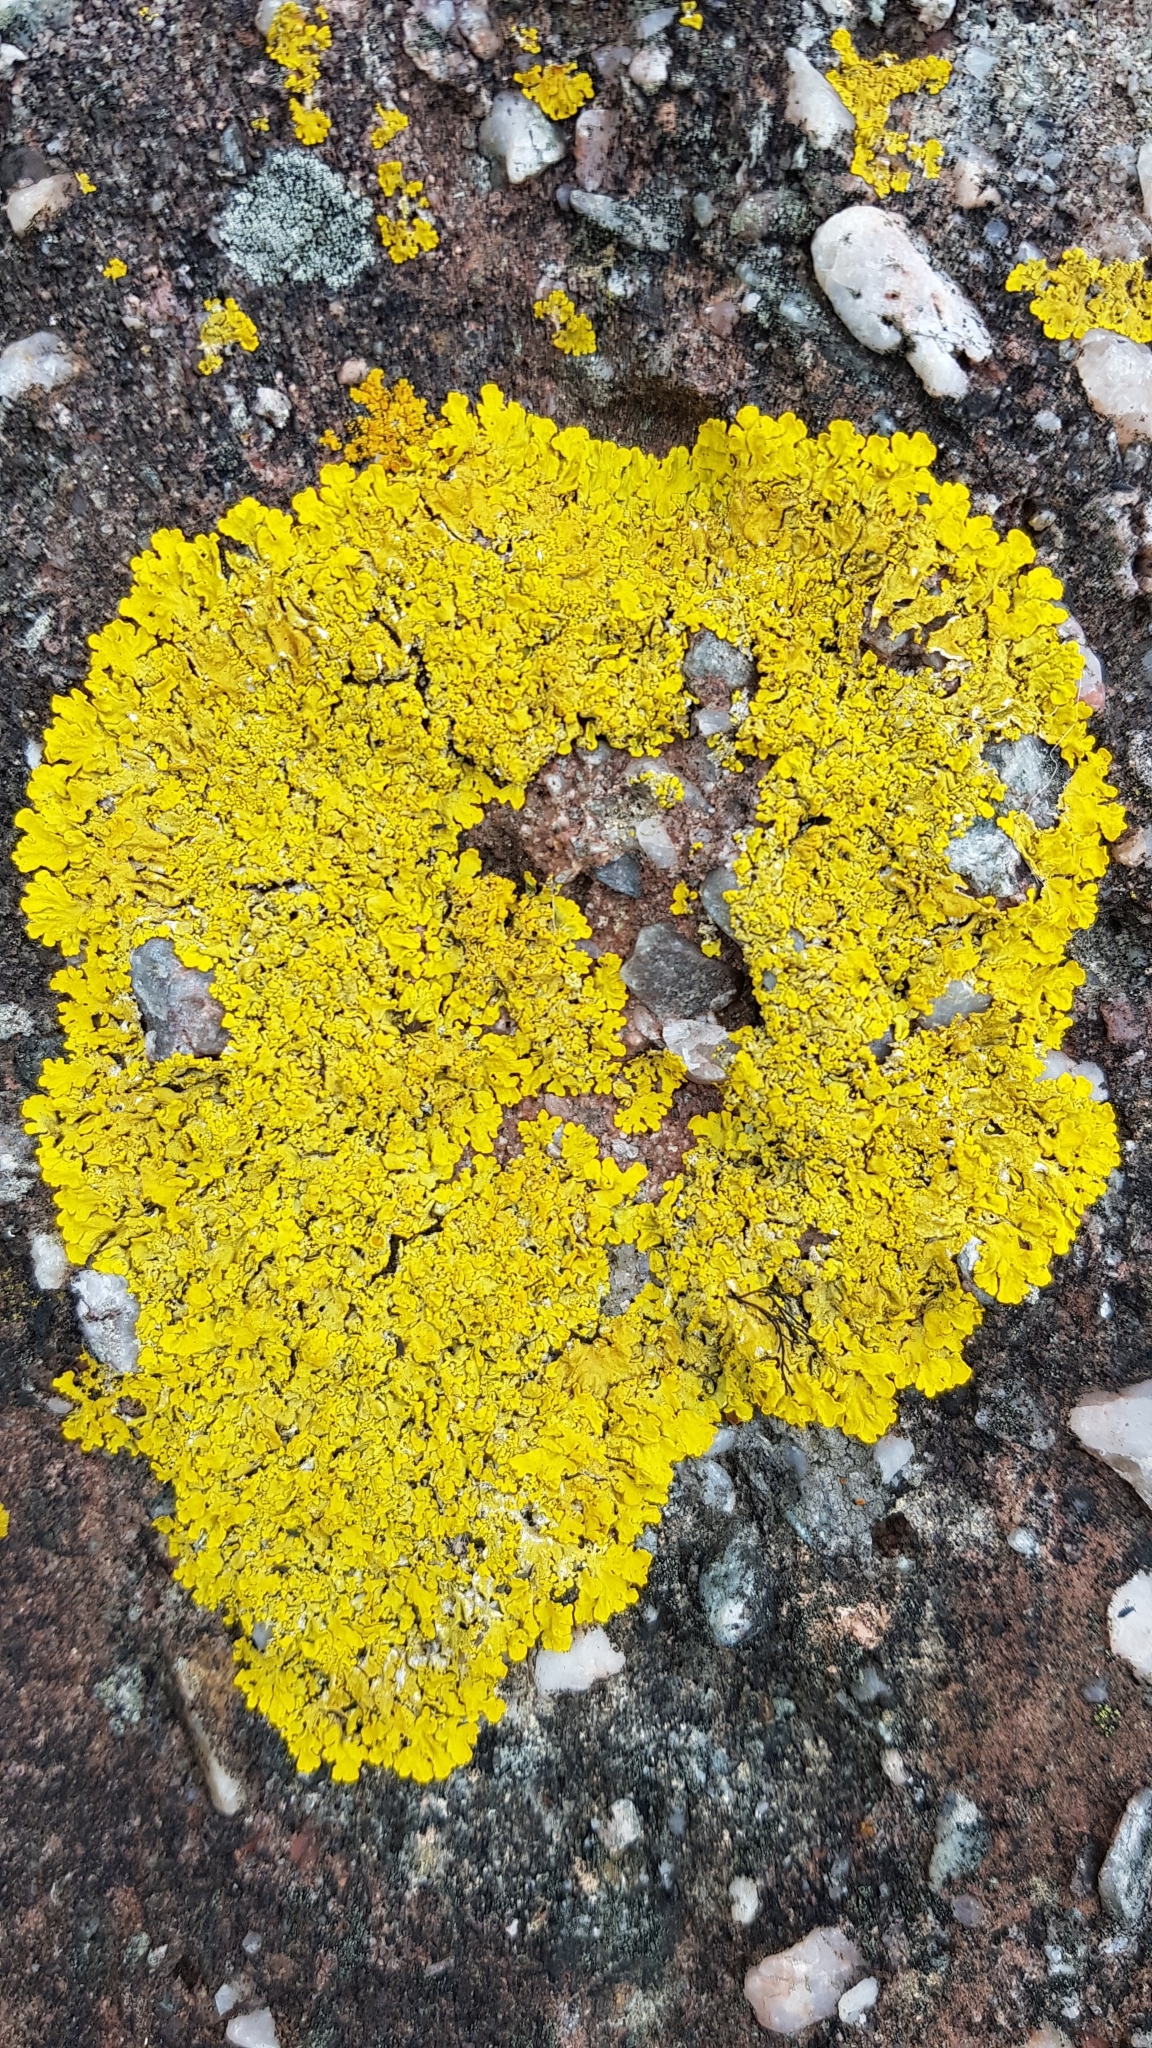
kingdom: Fungi
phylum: Ascomycota
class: Lecanoromycetes
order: Teloschistales
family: Teloschistaceae
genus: Xanthoria
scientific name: Xanthoria parietina
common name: Common orange lichen
